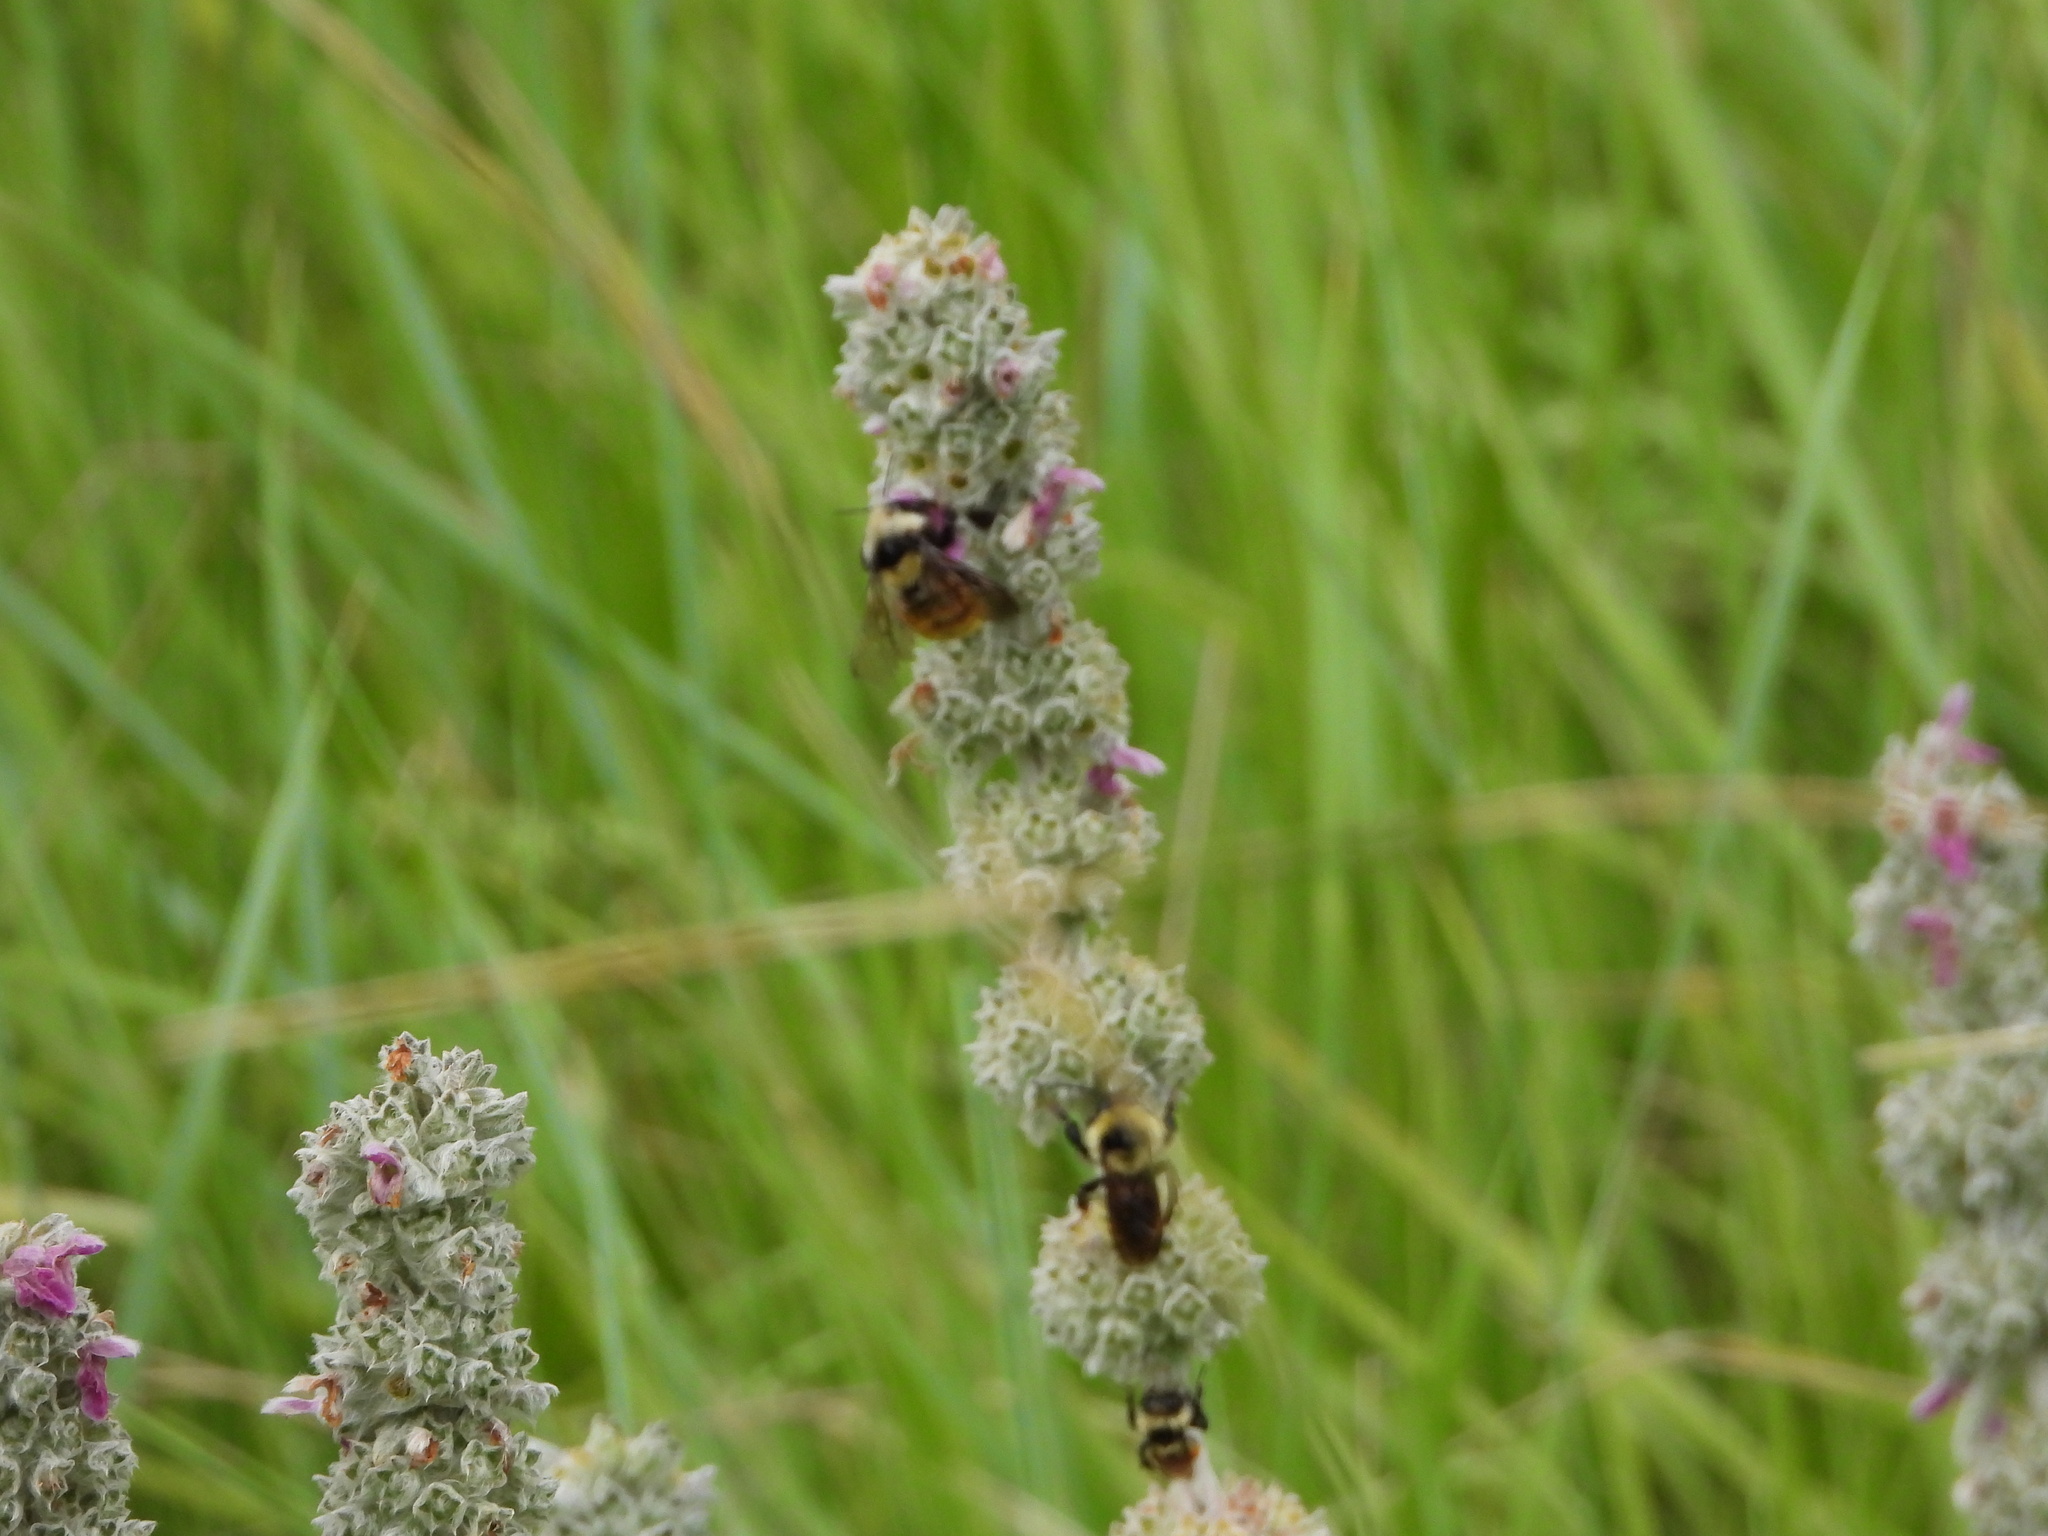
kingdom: Animalia
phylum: Arthropoda
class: Insecta
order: Hymenoptera
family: Apidae
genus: Bombus
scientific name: Bombus appositus
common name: White-shouldered bumble bee
